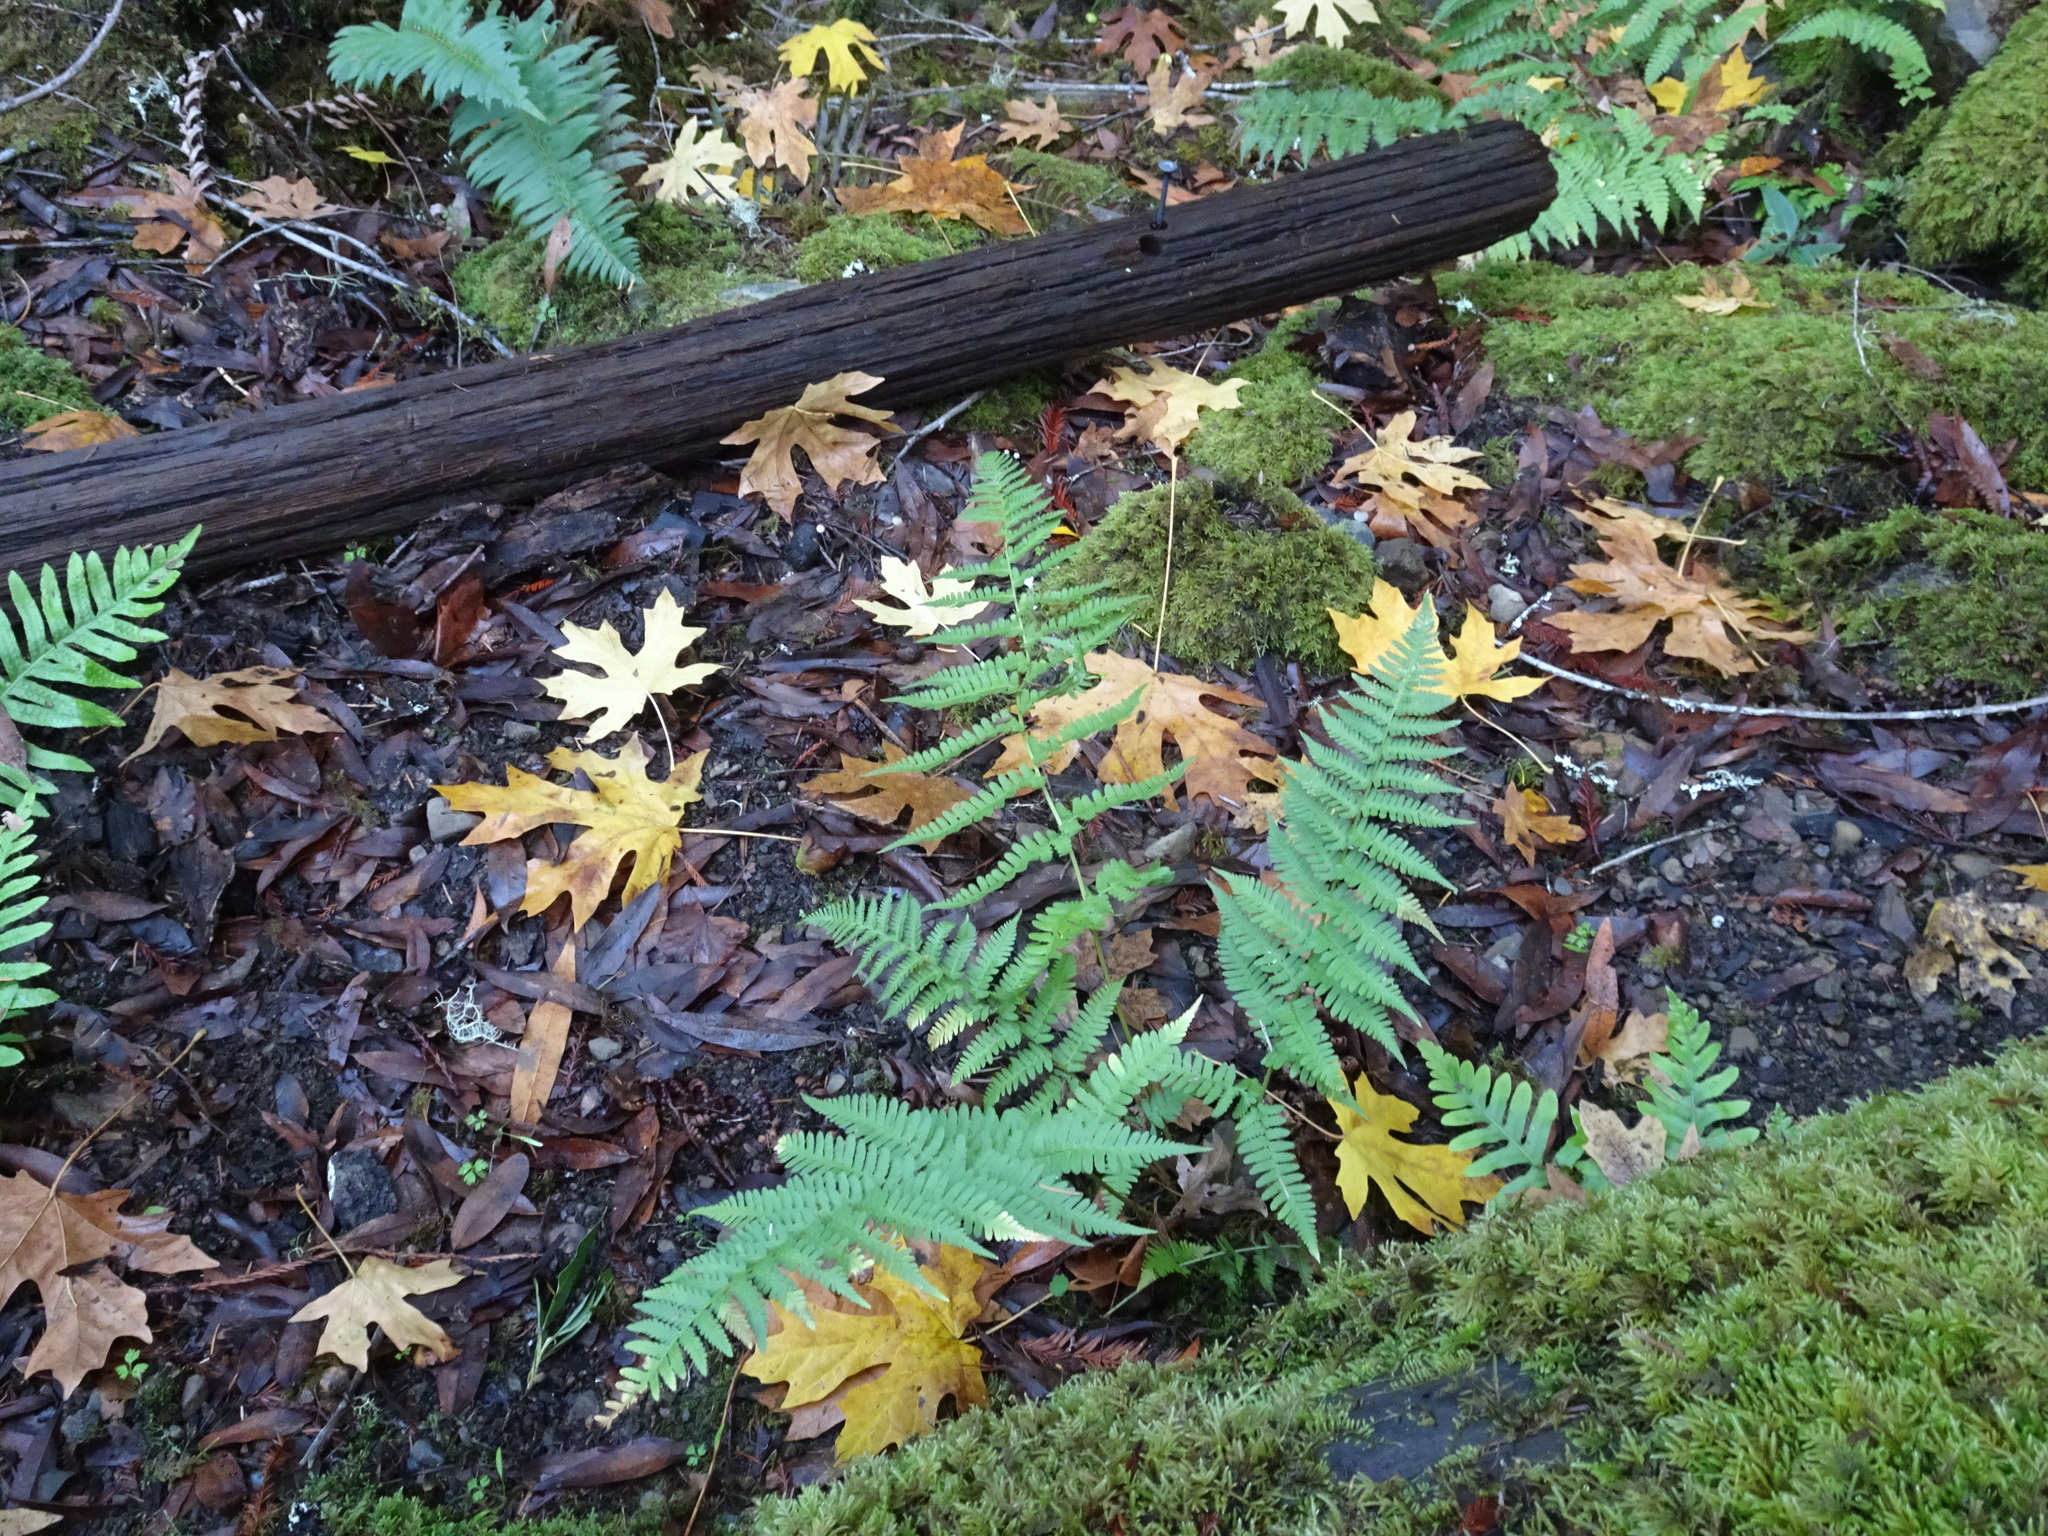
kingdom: Plantae
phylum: Tracheophyta
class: Polypodiopsida
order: Polypodiales
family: Dryopteridaceae
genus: Dryopteris
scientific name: Dryopteris arguta
